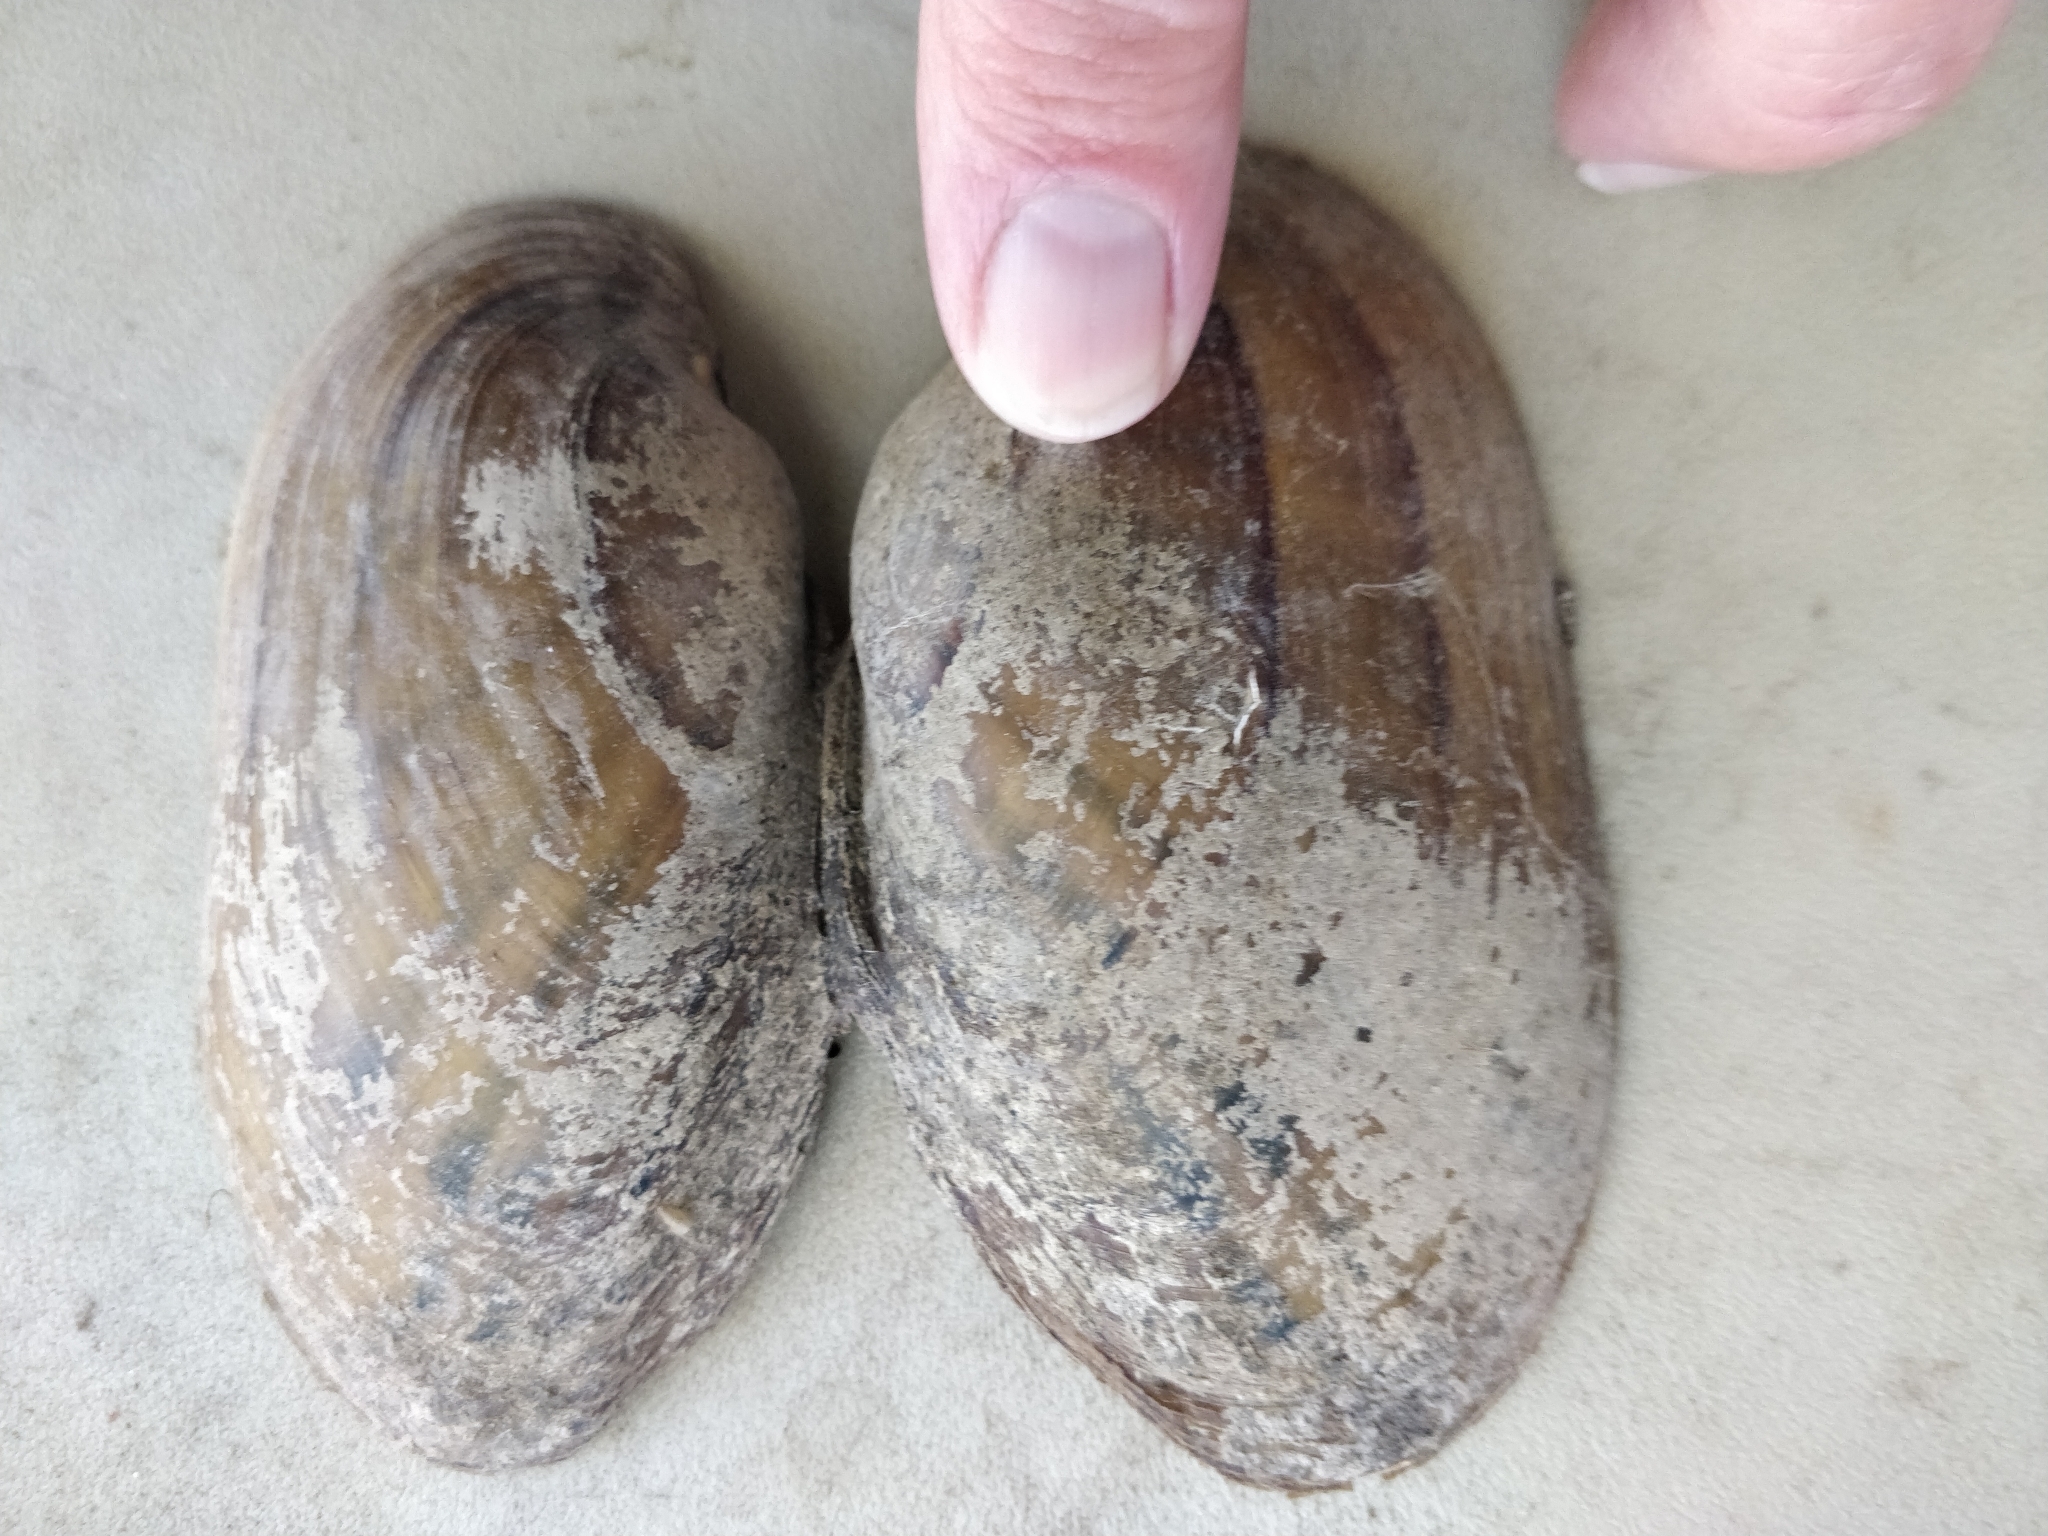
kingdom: Animalia
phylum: Mollusca
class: Bivalvia
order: Unionida
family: Unionidae
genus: Lampsilis
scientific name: Lampsilis siliquoidea
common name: Fatmucket
